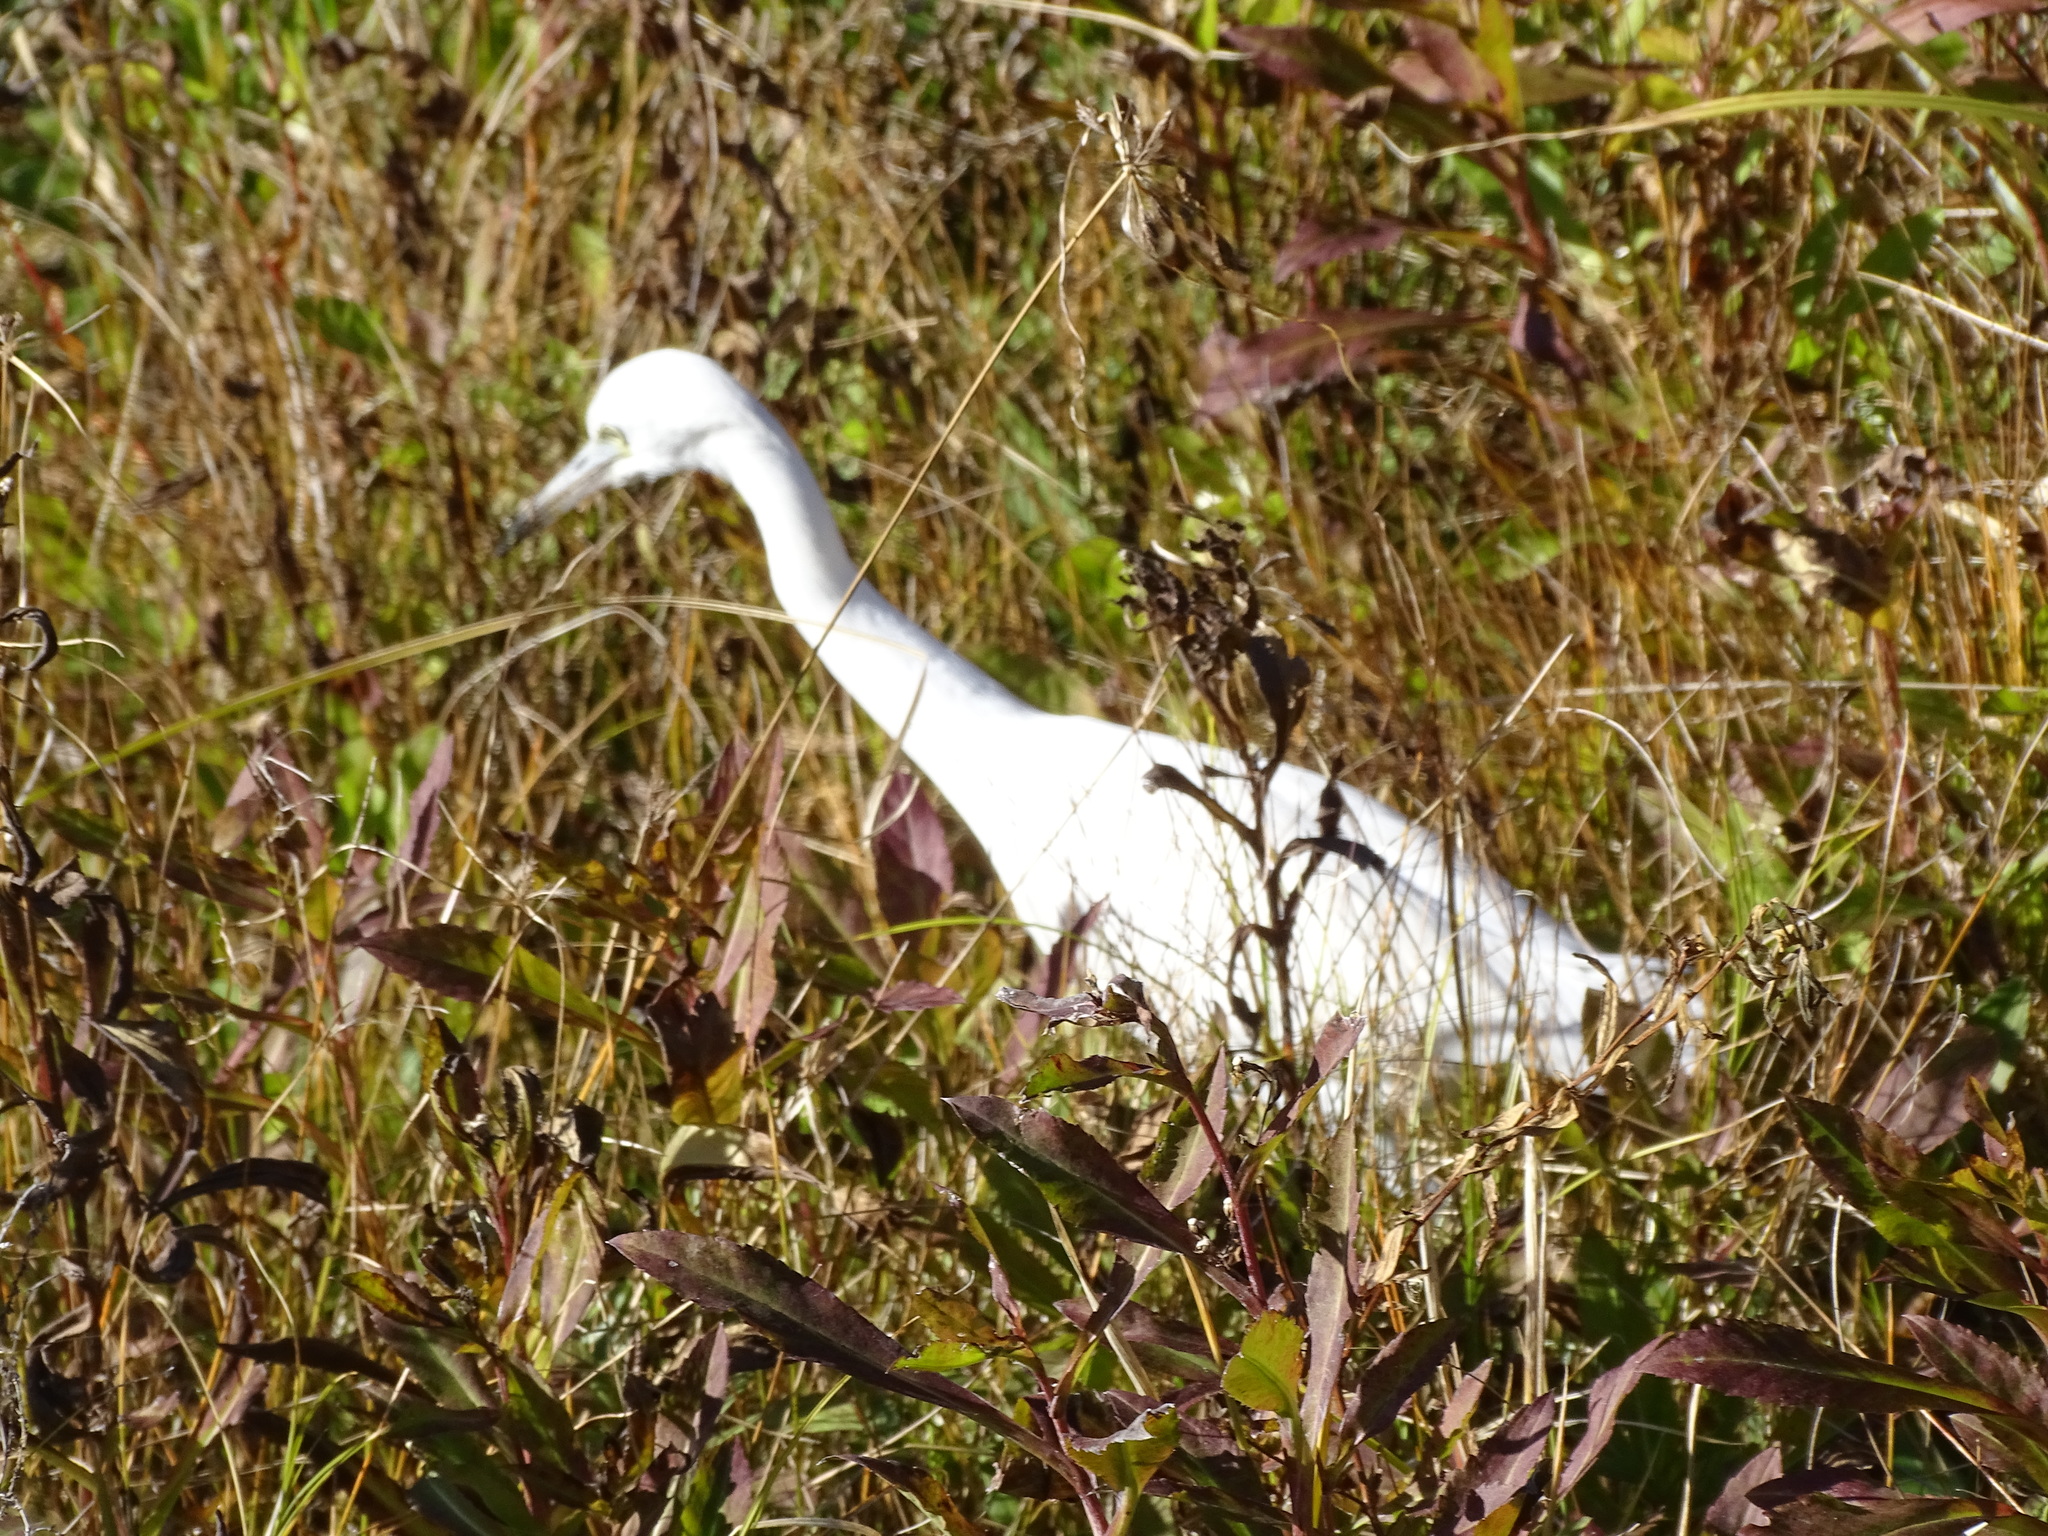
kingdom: Animalia
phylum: Chordata
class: Aves
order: Pelecaniformes
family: Ardeidae
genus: Egretta
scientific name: Egretta caerulea
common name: Little blue heron
